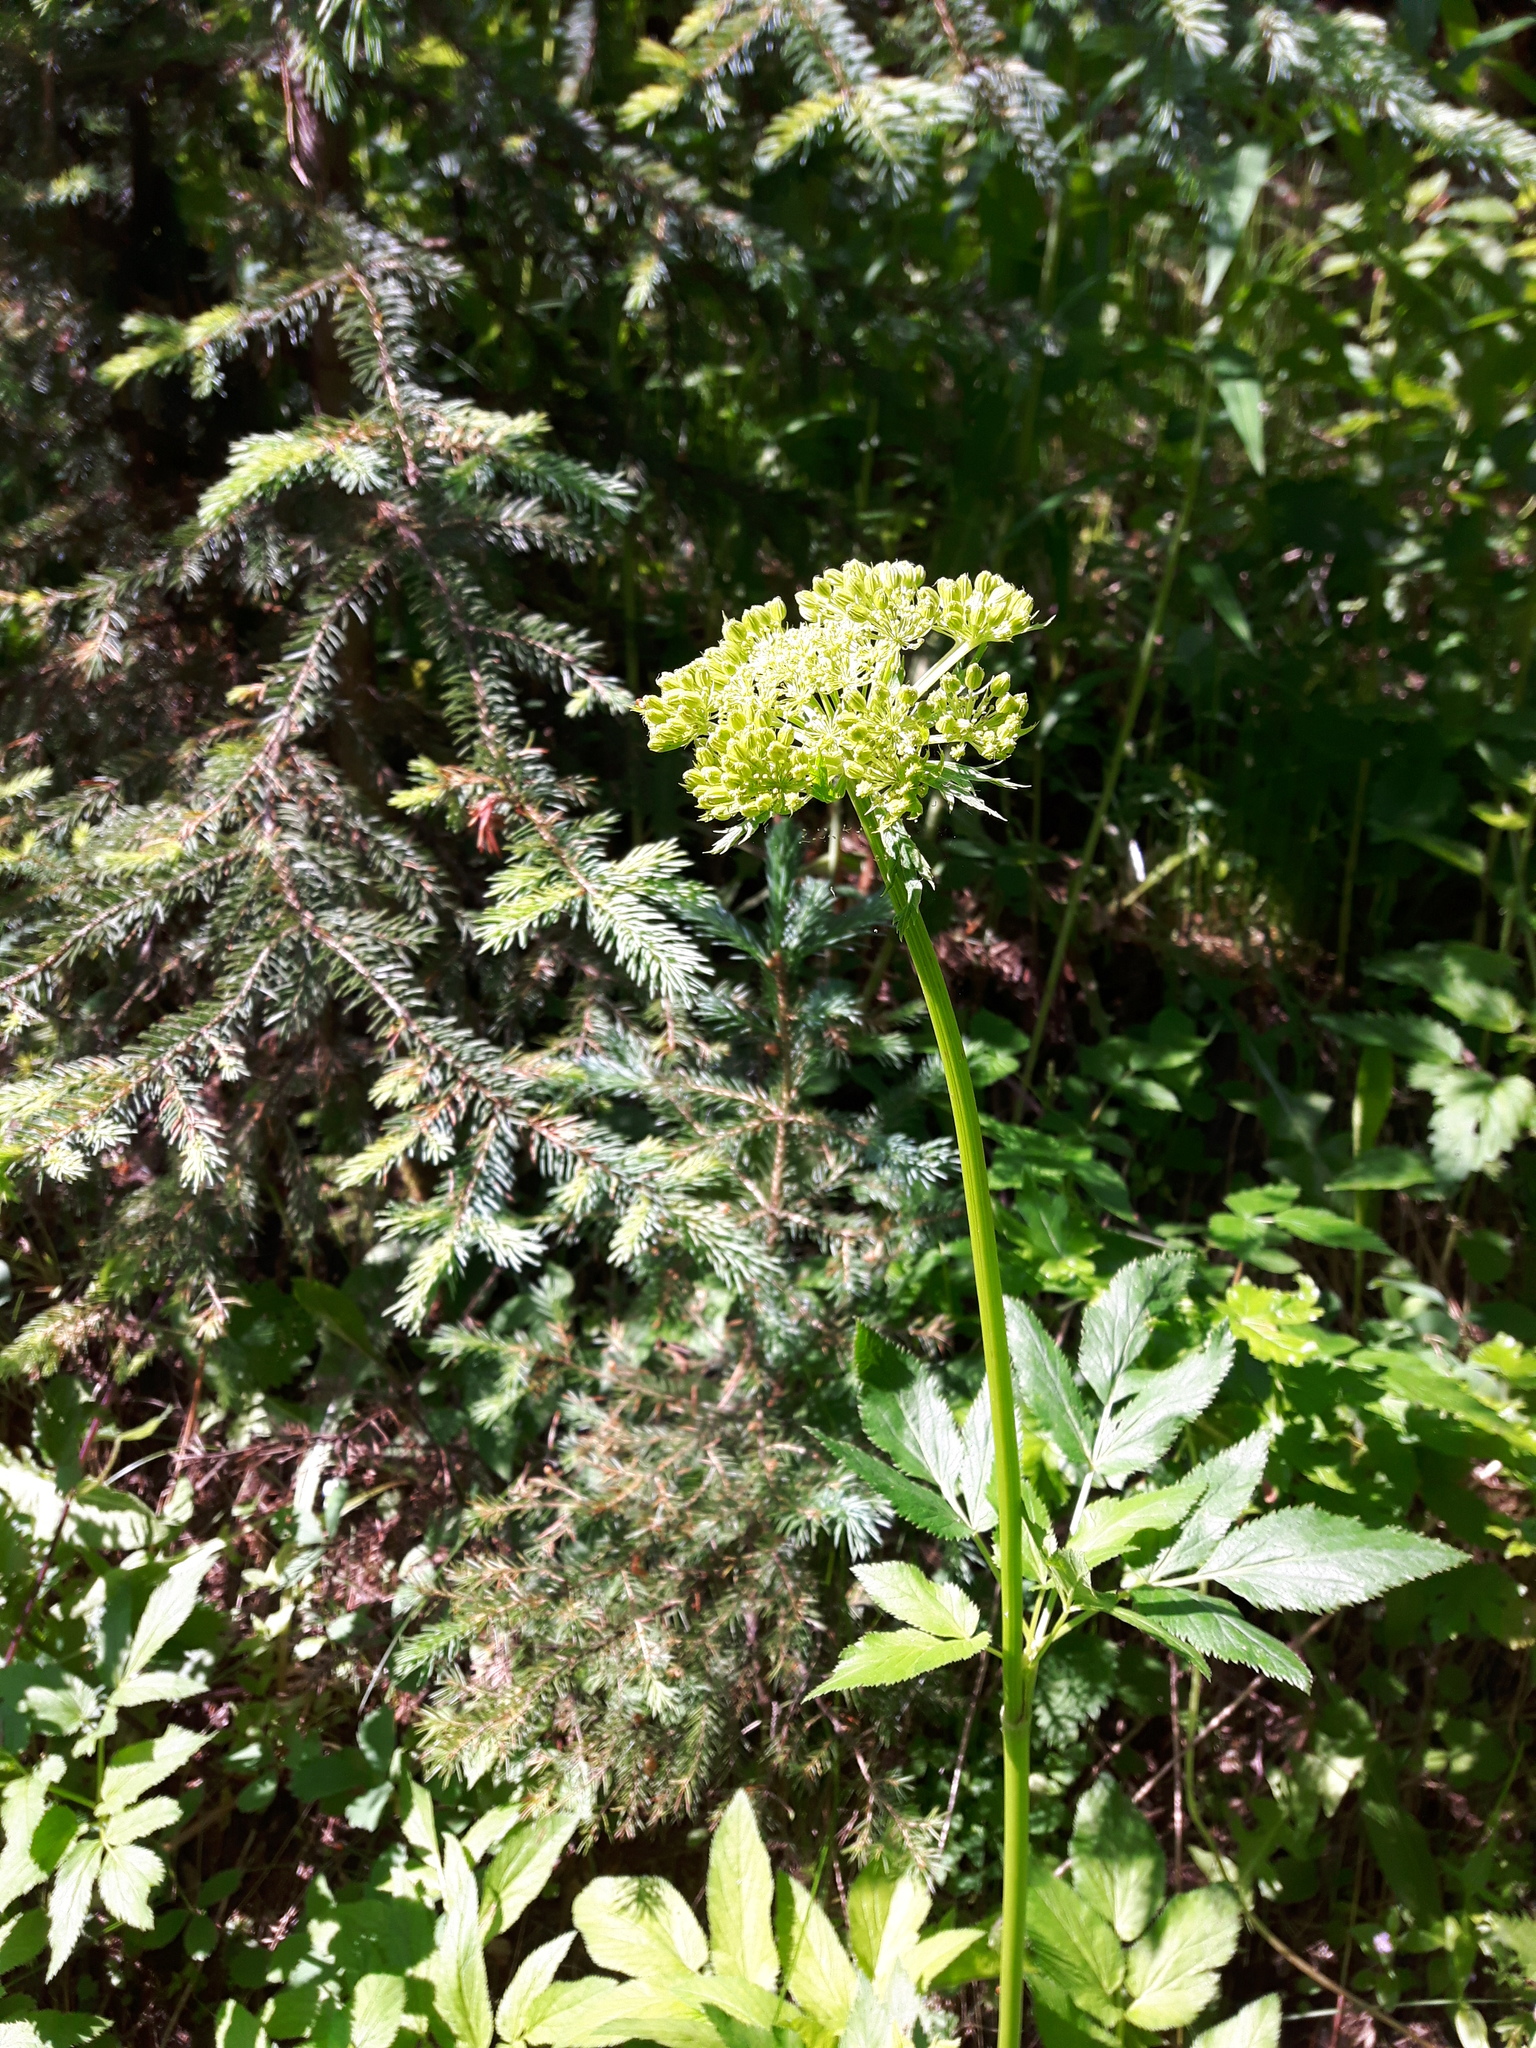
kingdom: Plantae
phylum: Tracheophyta
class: Magnoliopsida
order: Apiales
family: Apiaceae
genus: Angelica
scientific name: Angelica dawsonii
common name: Dawson's angelica
